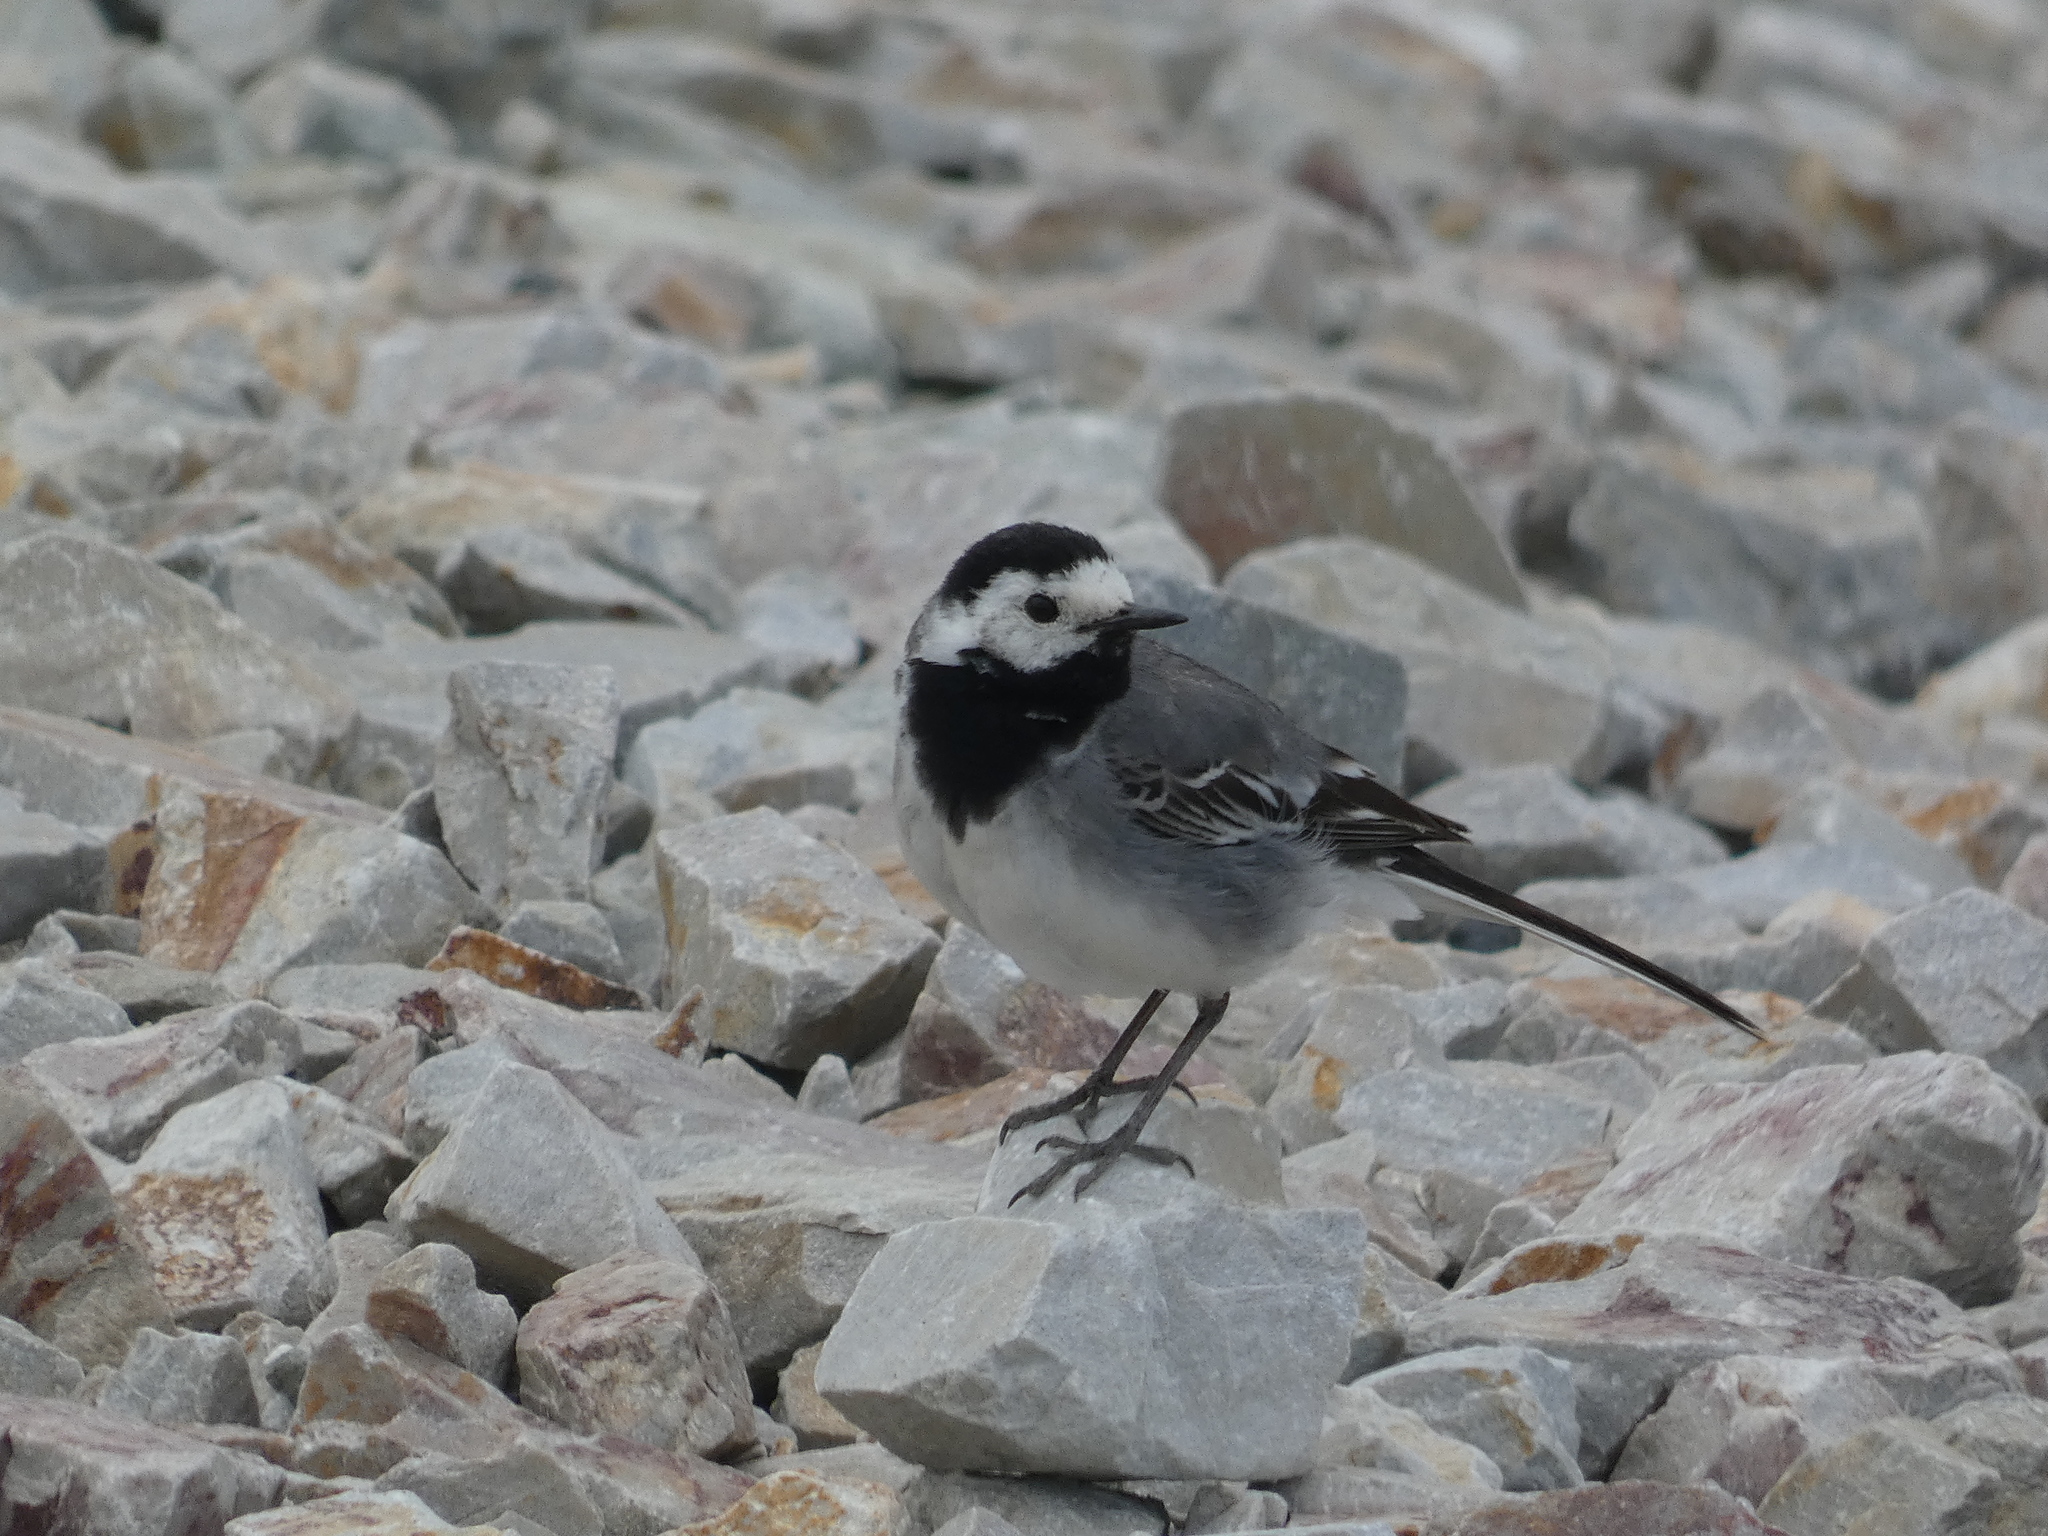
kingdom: Animalia
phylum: Chordata
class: Aves
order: Passeriformes
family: Motacillidae
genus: Motacilla
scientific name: Motacilla alba
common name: White wagtail
